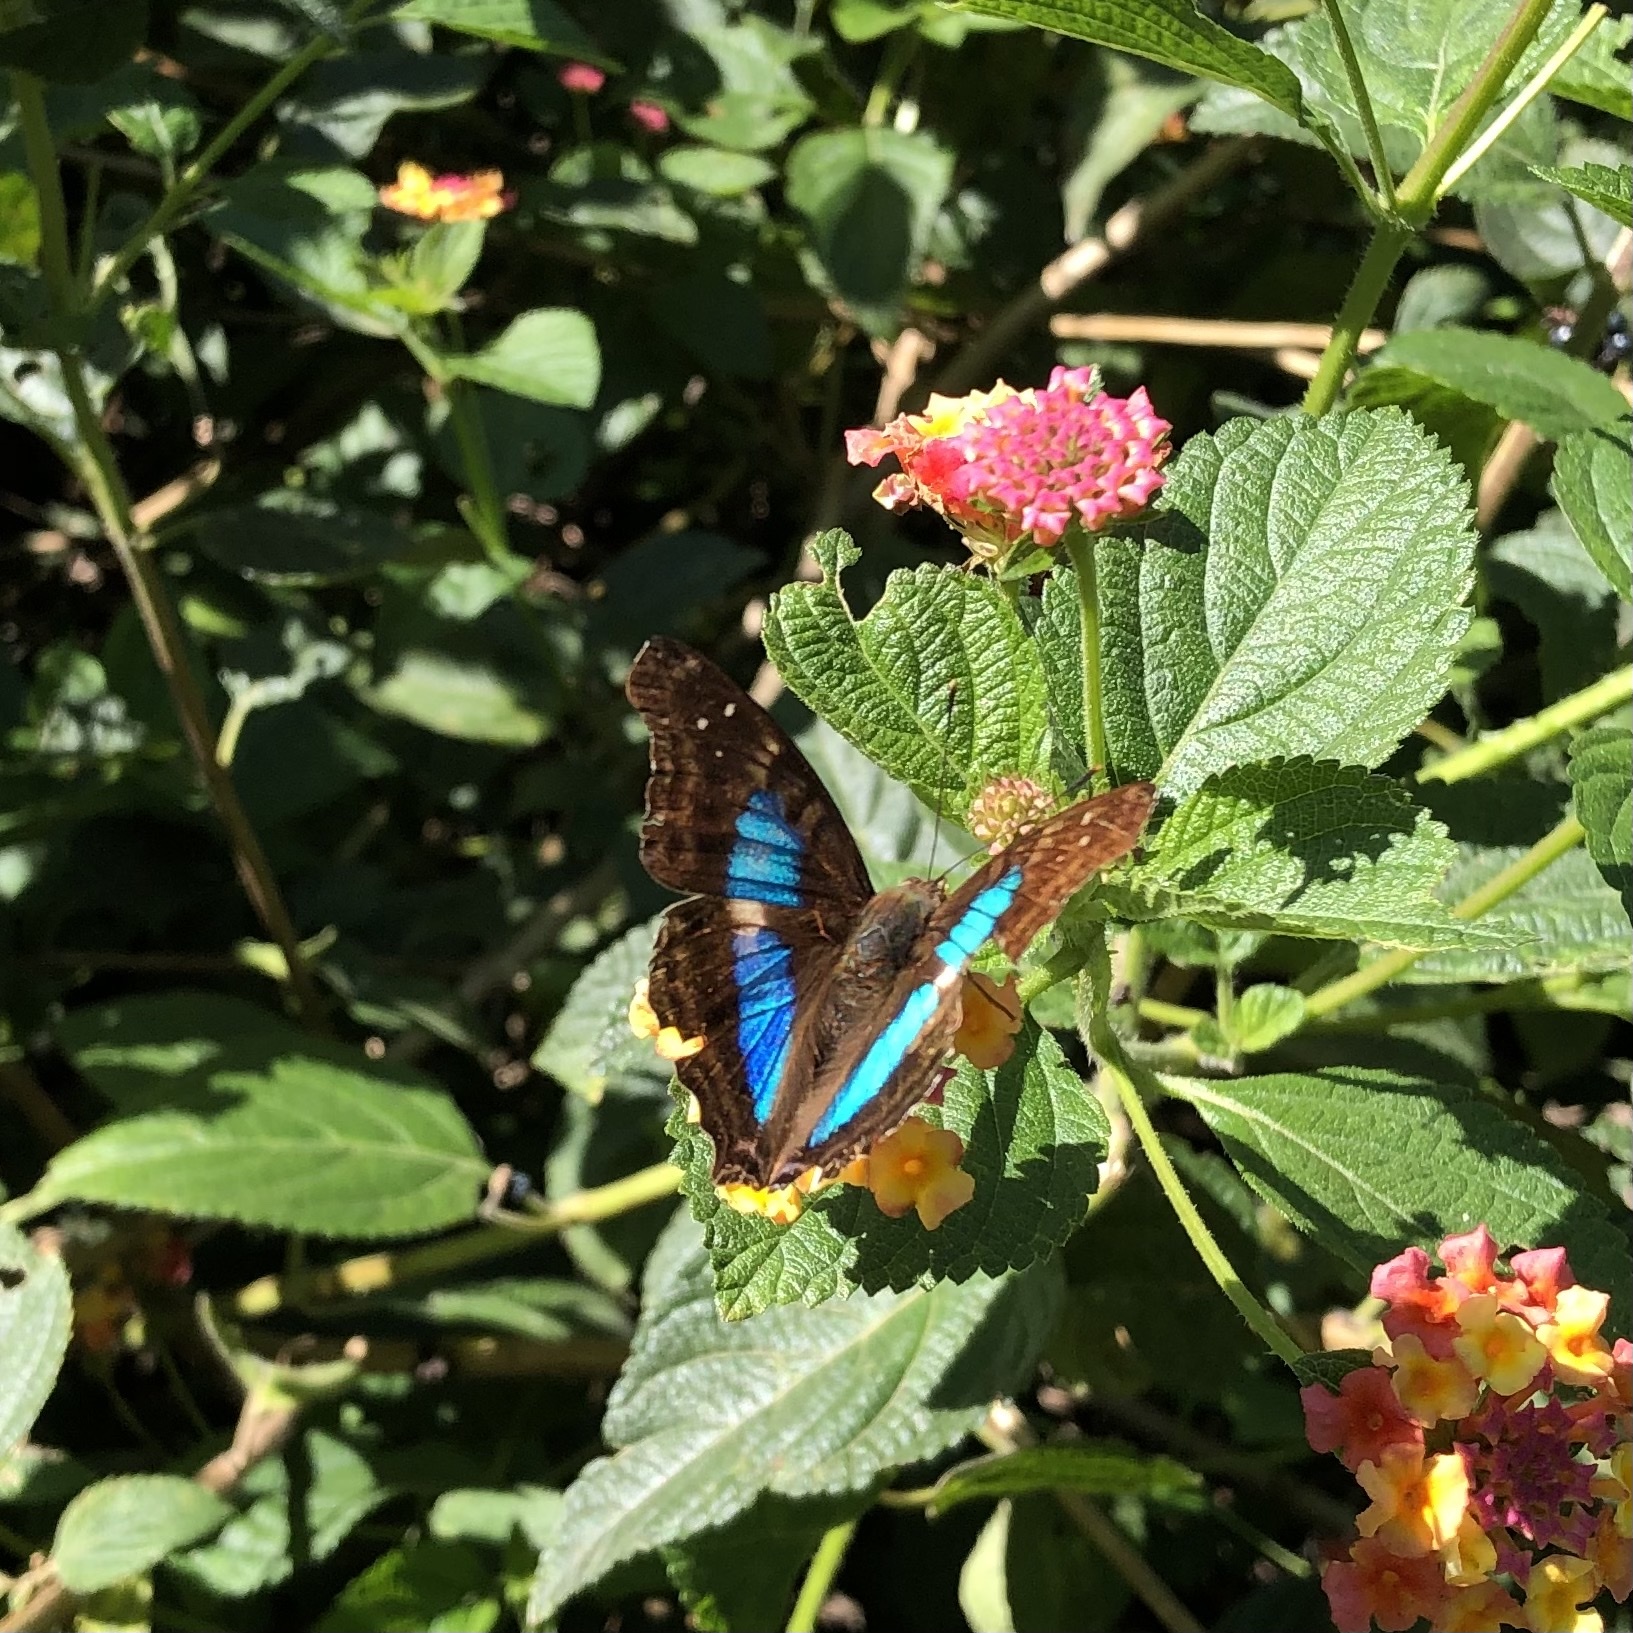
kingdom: Animalia
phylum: Arthropoda
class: Insecta
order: Lepidoptera
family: Nymphalidae
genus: Doxocopa
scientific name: Doxocopa laurentia
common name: Turquoise emperor
